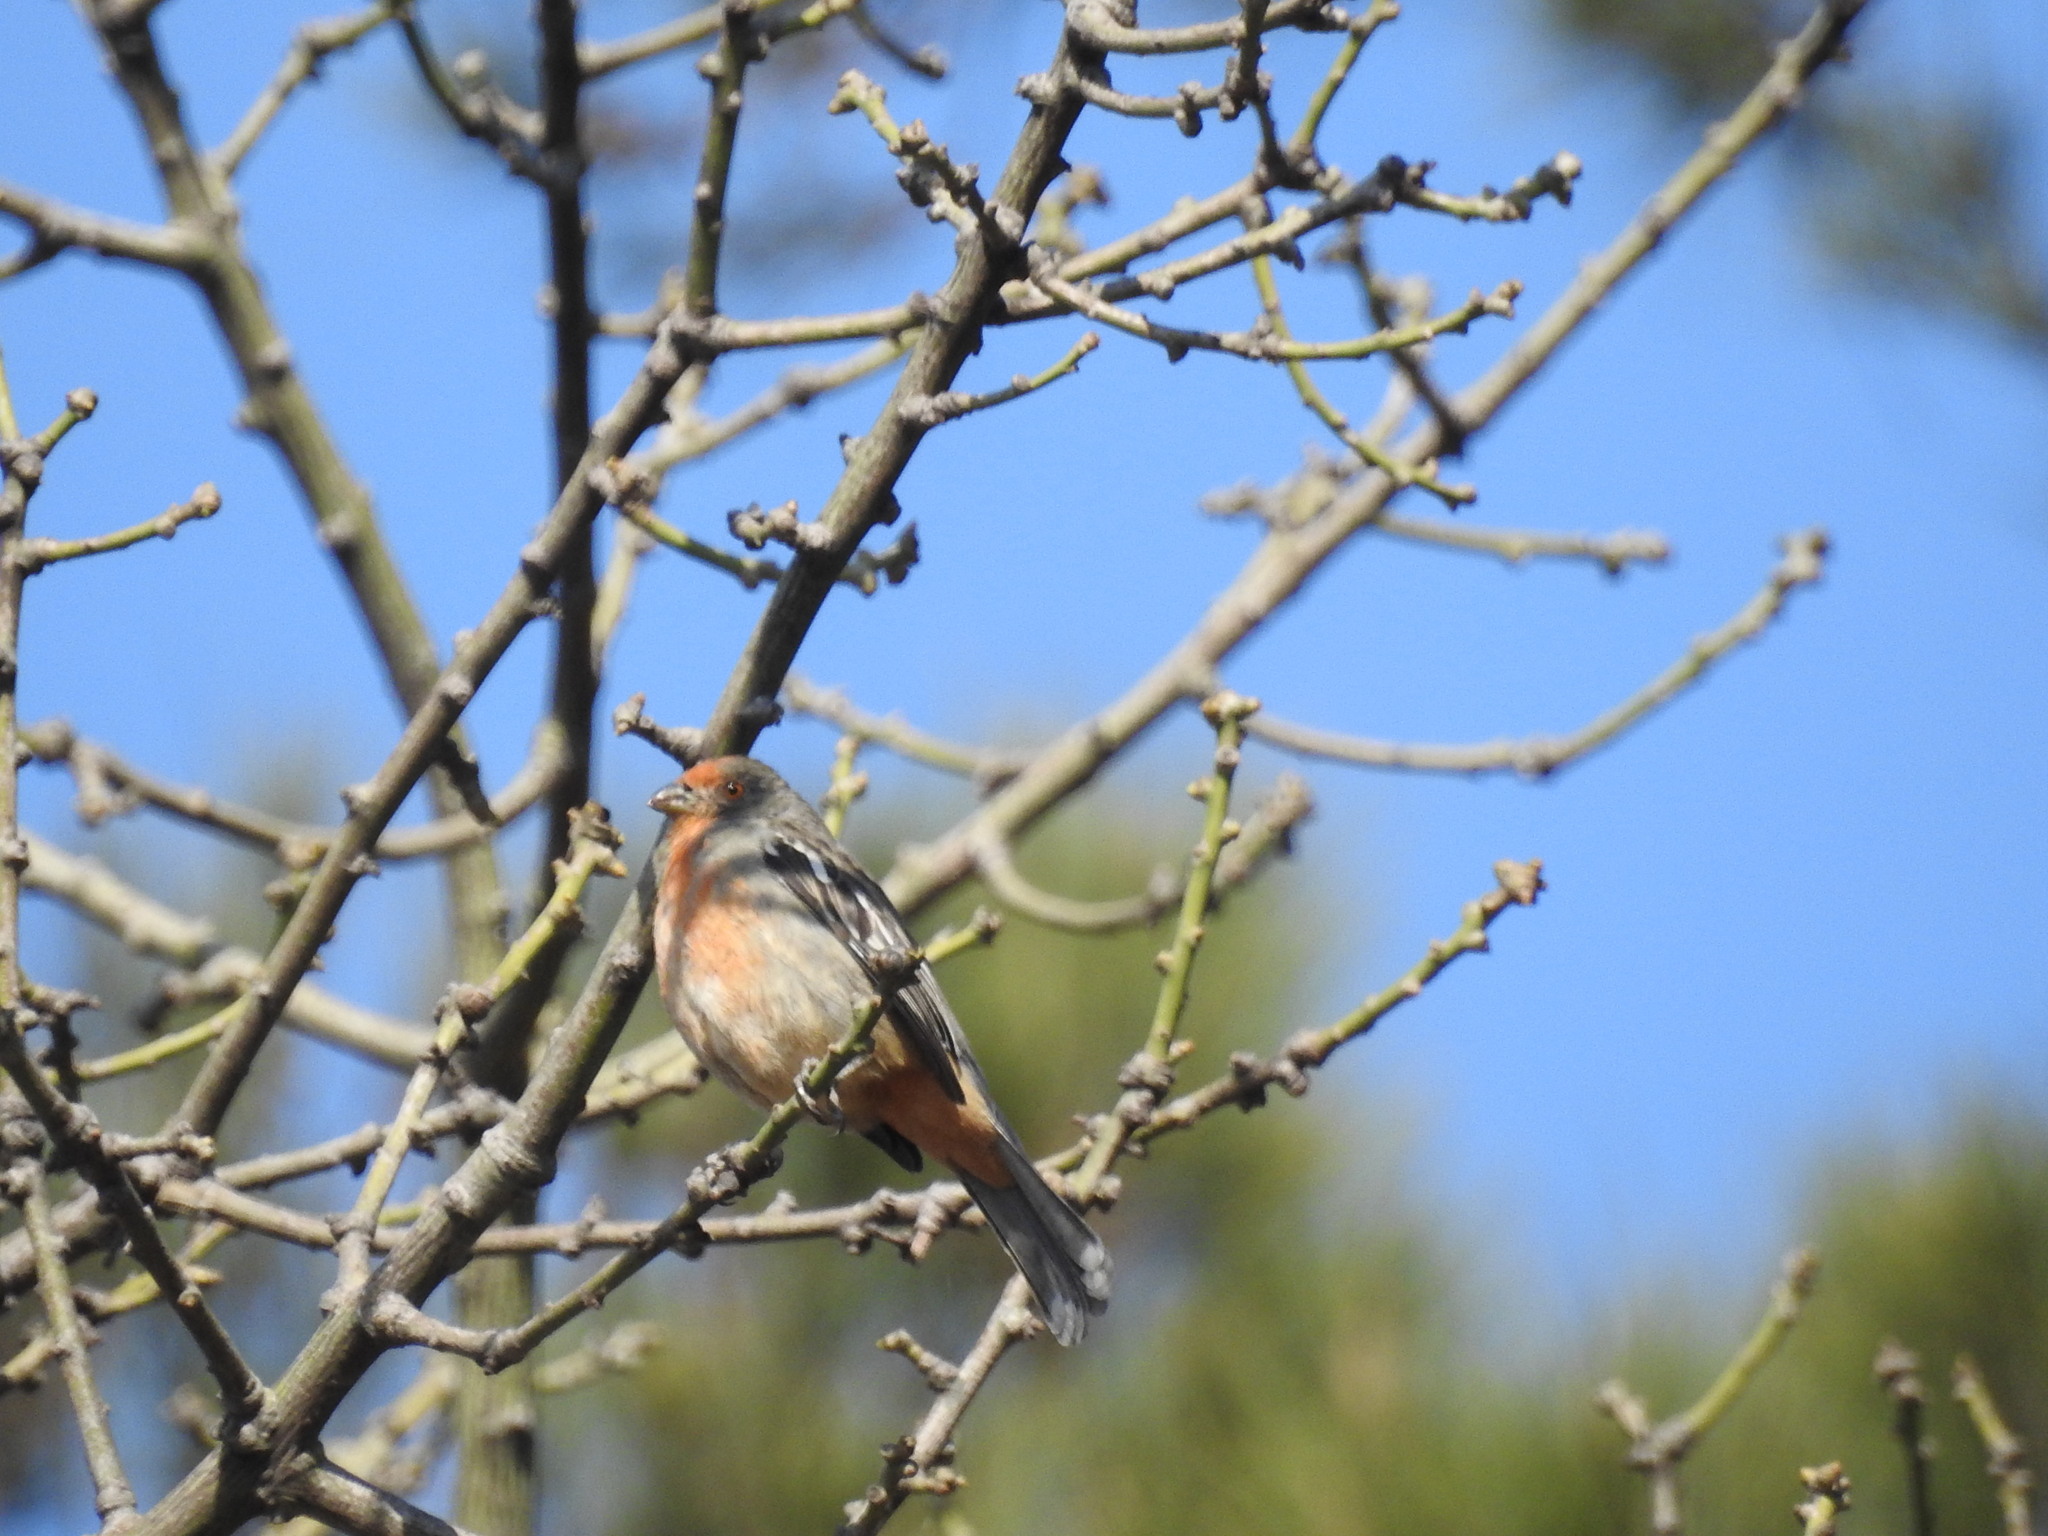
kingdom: Animalia
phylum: Chordata
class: Aves
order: Passeriformes
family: Cotingidae
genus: Phytotoma
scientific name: Phytotoma rutila
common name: White-tipped plantcutter
